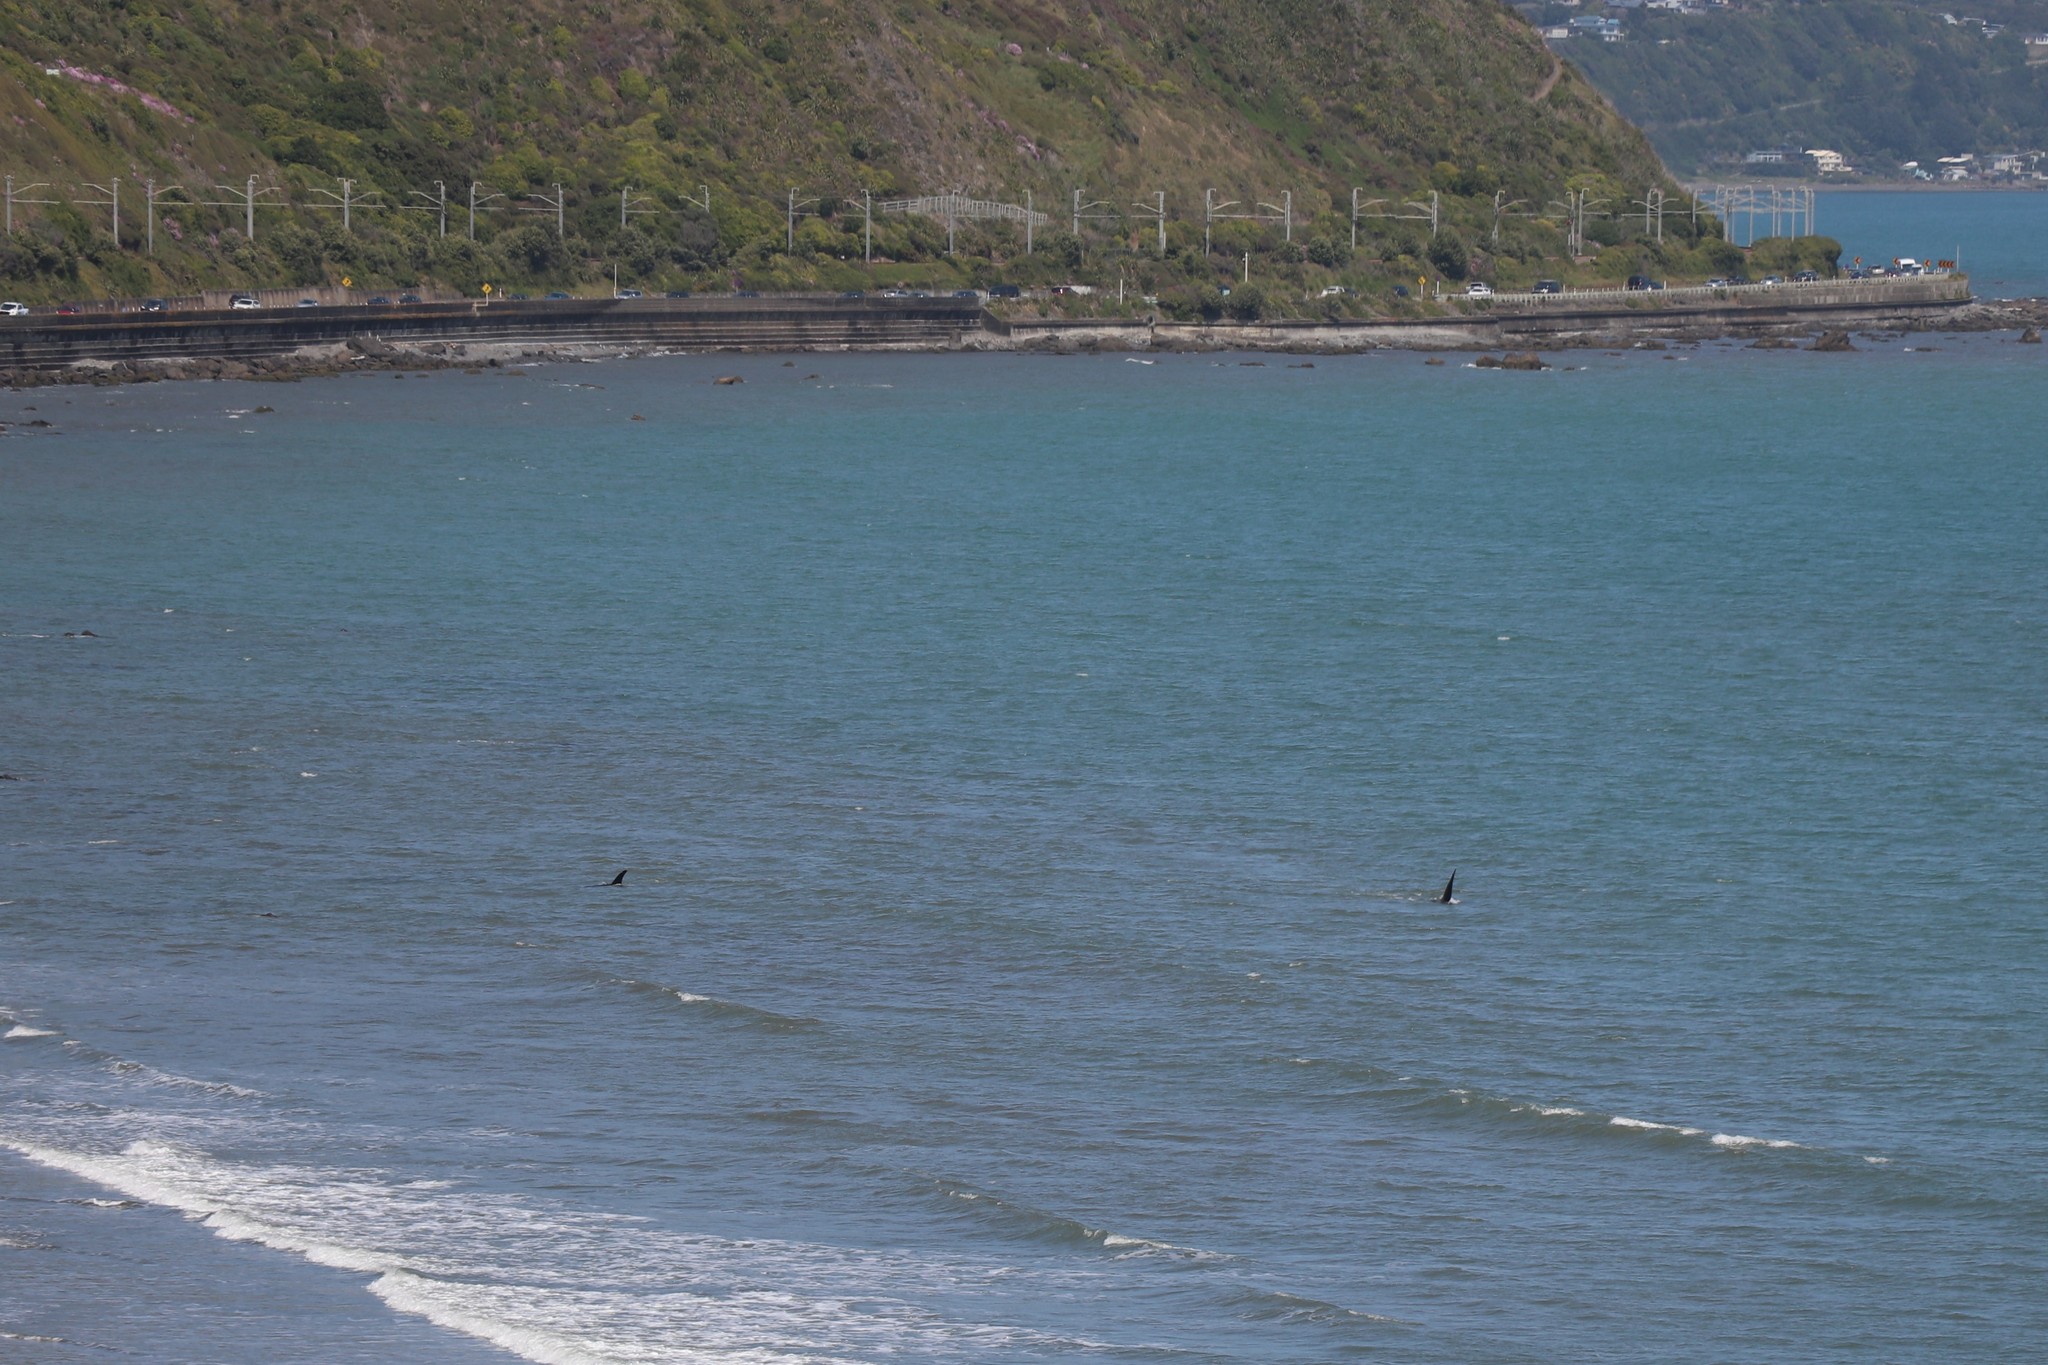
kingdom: Animalia
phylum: Chordata
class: Mammalia
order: Cetacea
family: Delphinidae
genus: Orcinus
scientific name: Orcinus orca
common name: Killer whale
